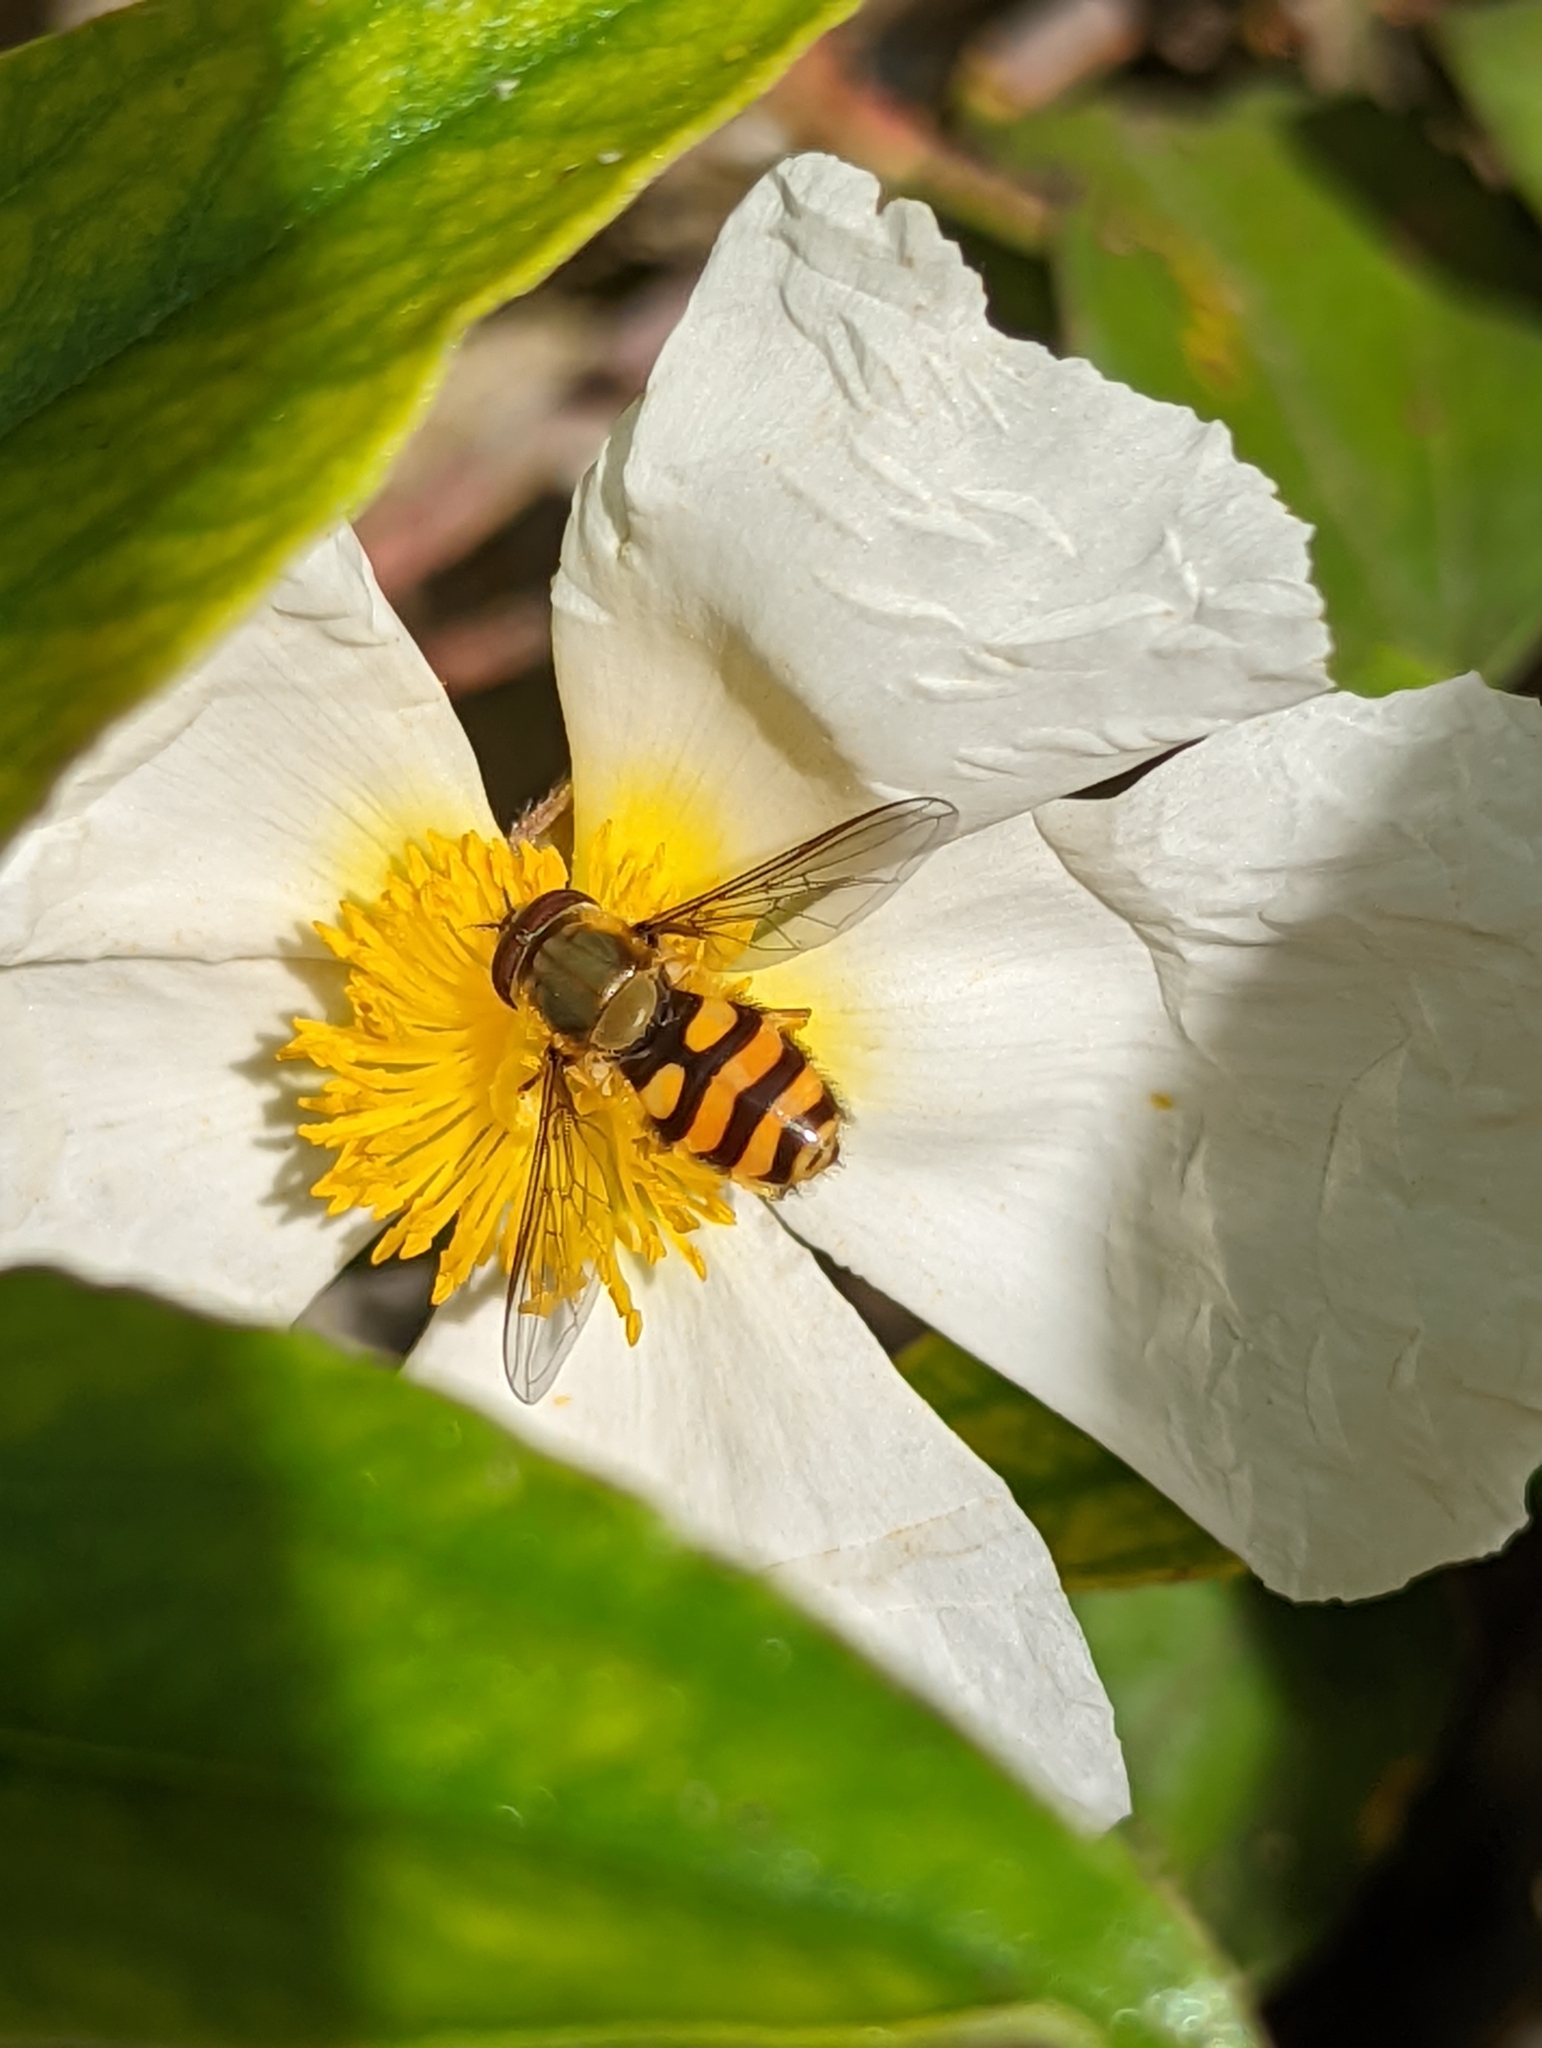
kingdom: Animalia
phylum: Arthropoda
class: Insecta
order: Diptera
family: Syrphidae
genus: Syrphus
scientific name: Syrphus
